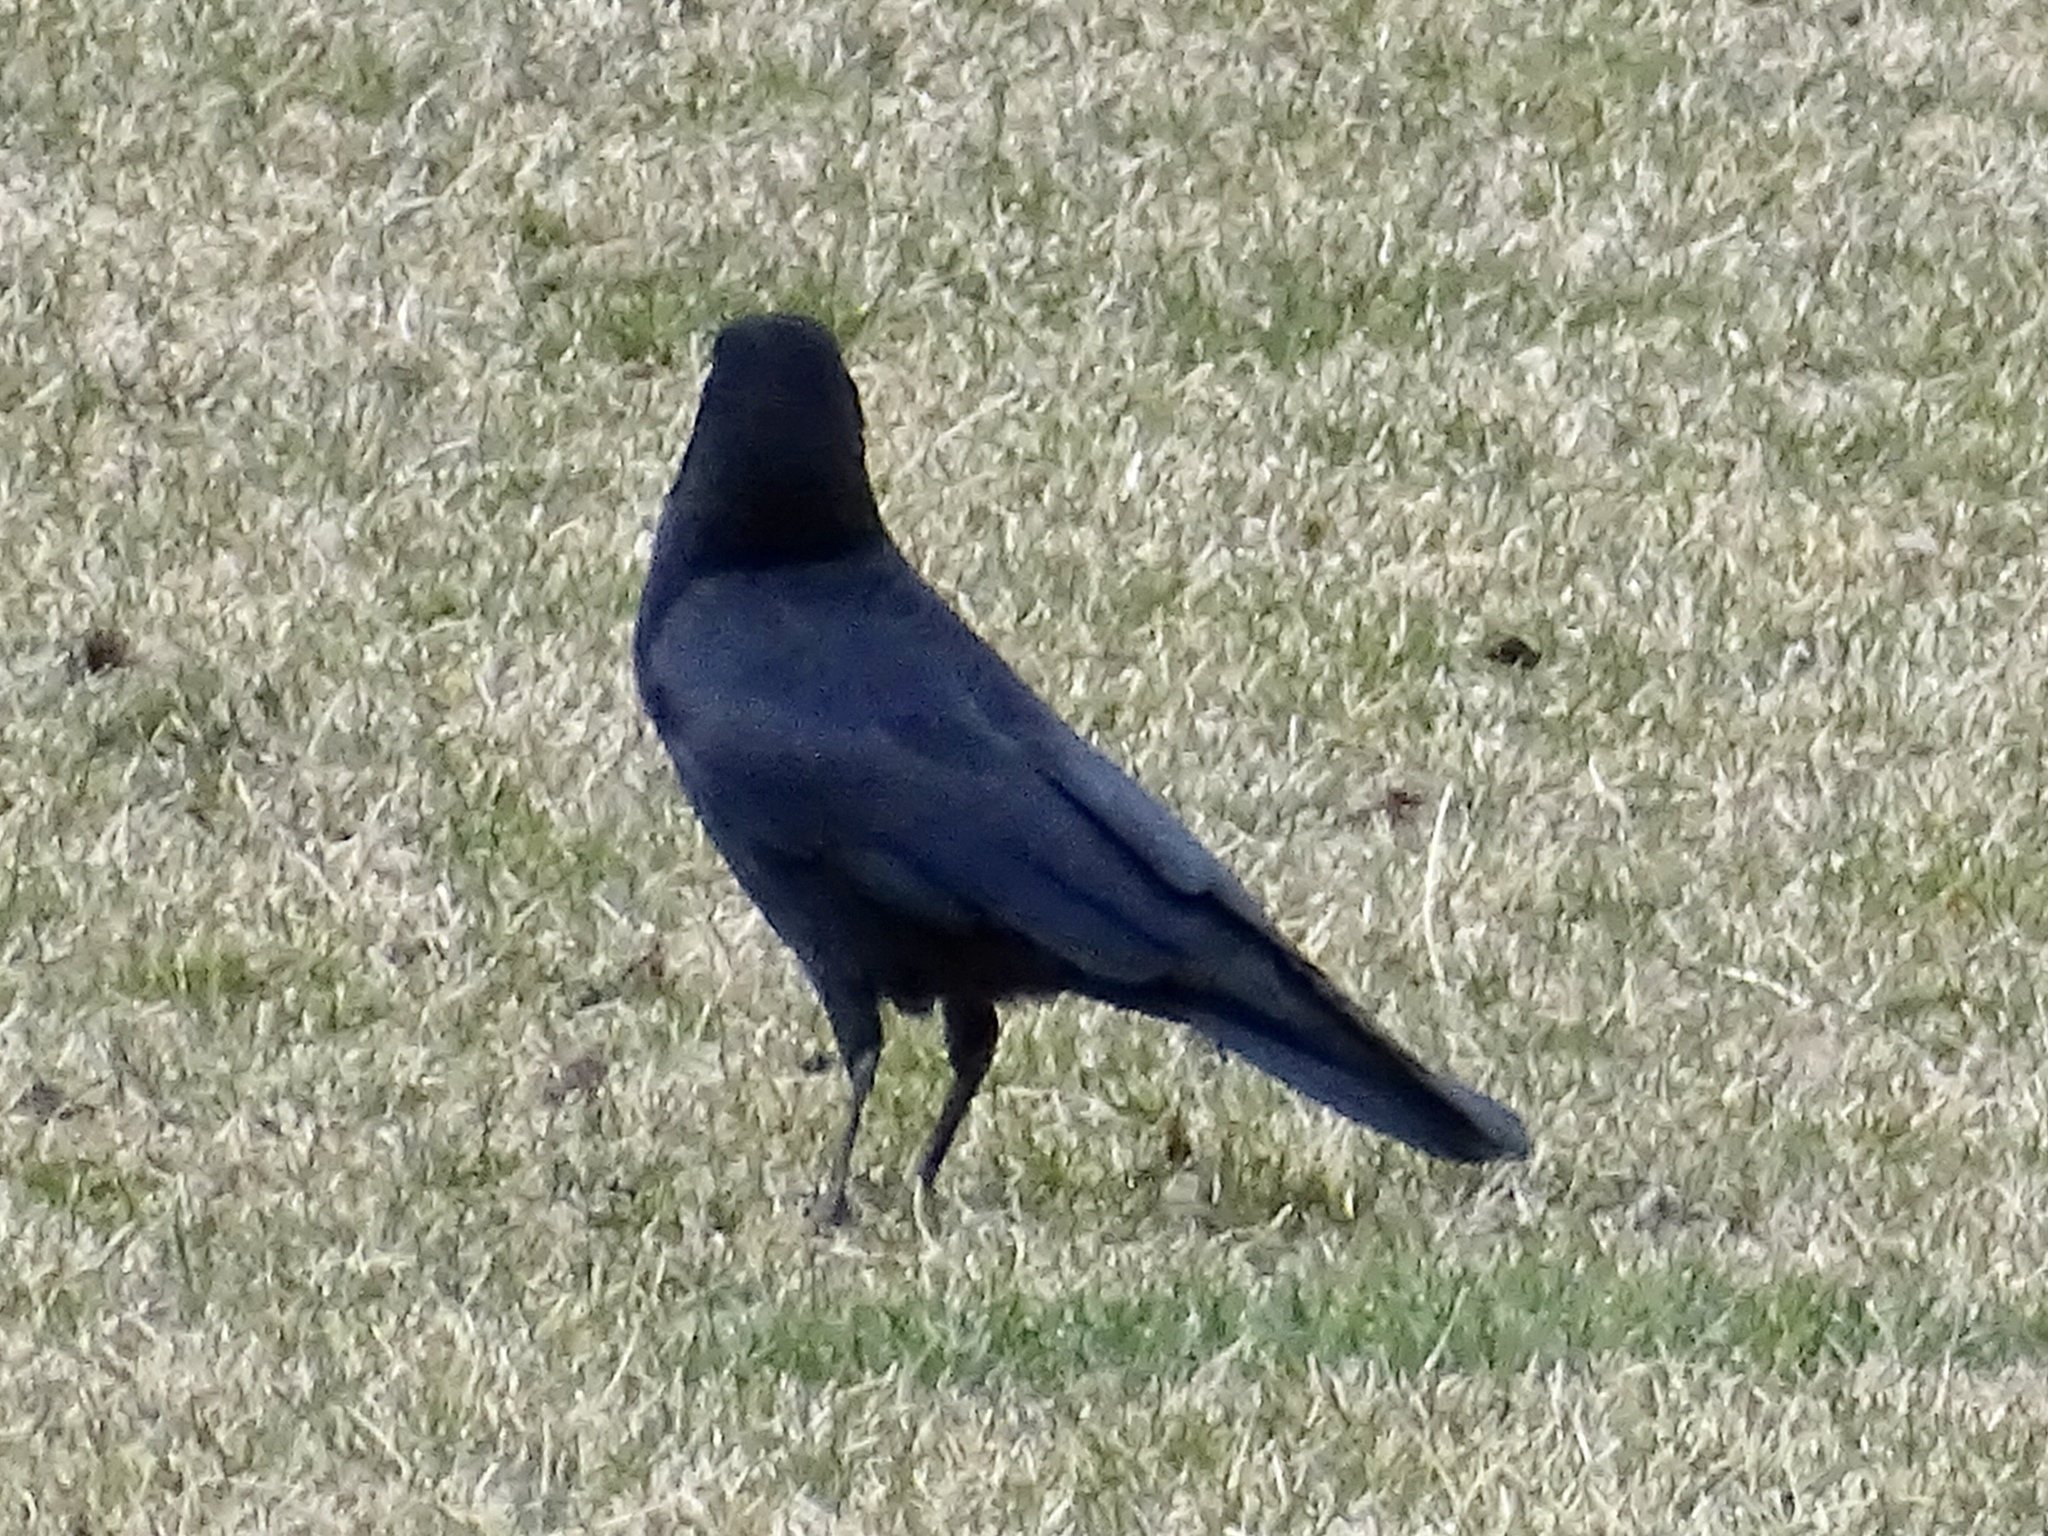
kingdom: Animalia
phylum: Chordata
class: Aves
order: Passeriformes
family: Corvidae
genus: Corvus
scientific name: Corvus brachyrhynchos
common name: American crow
